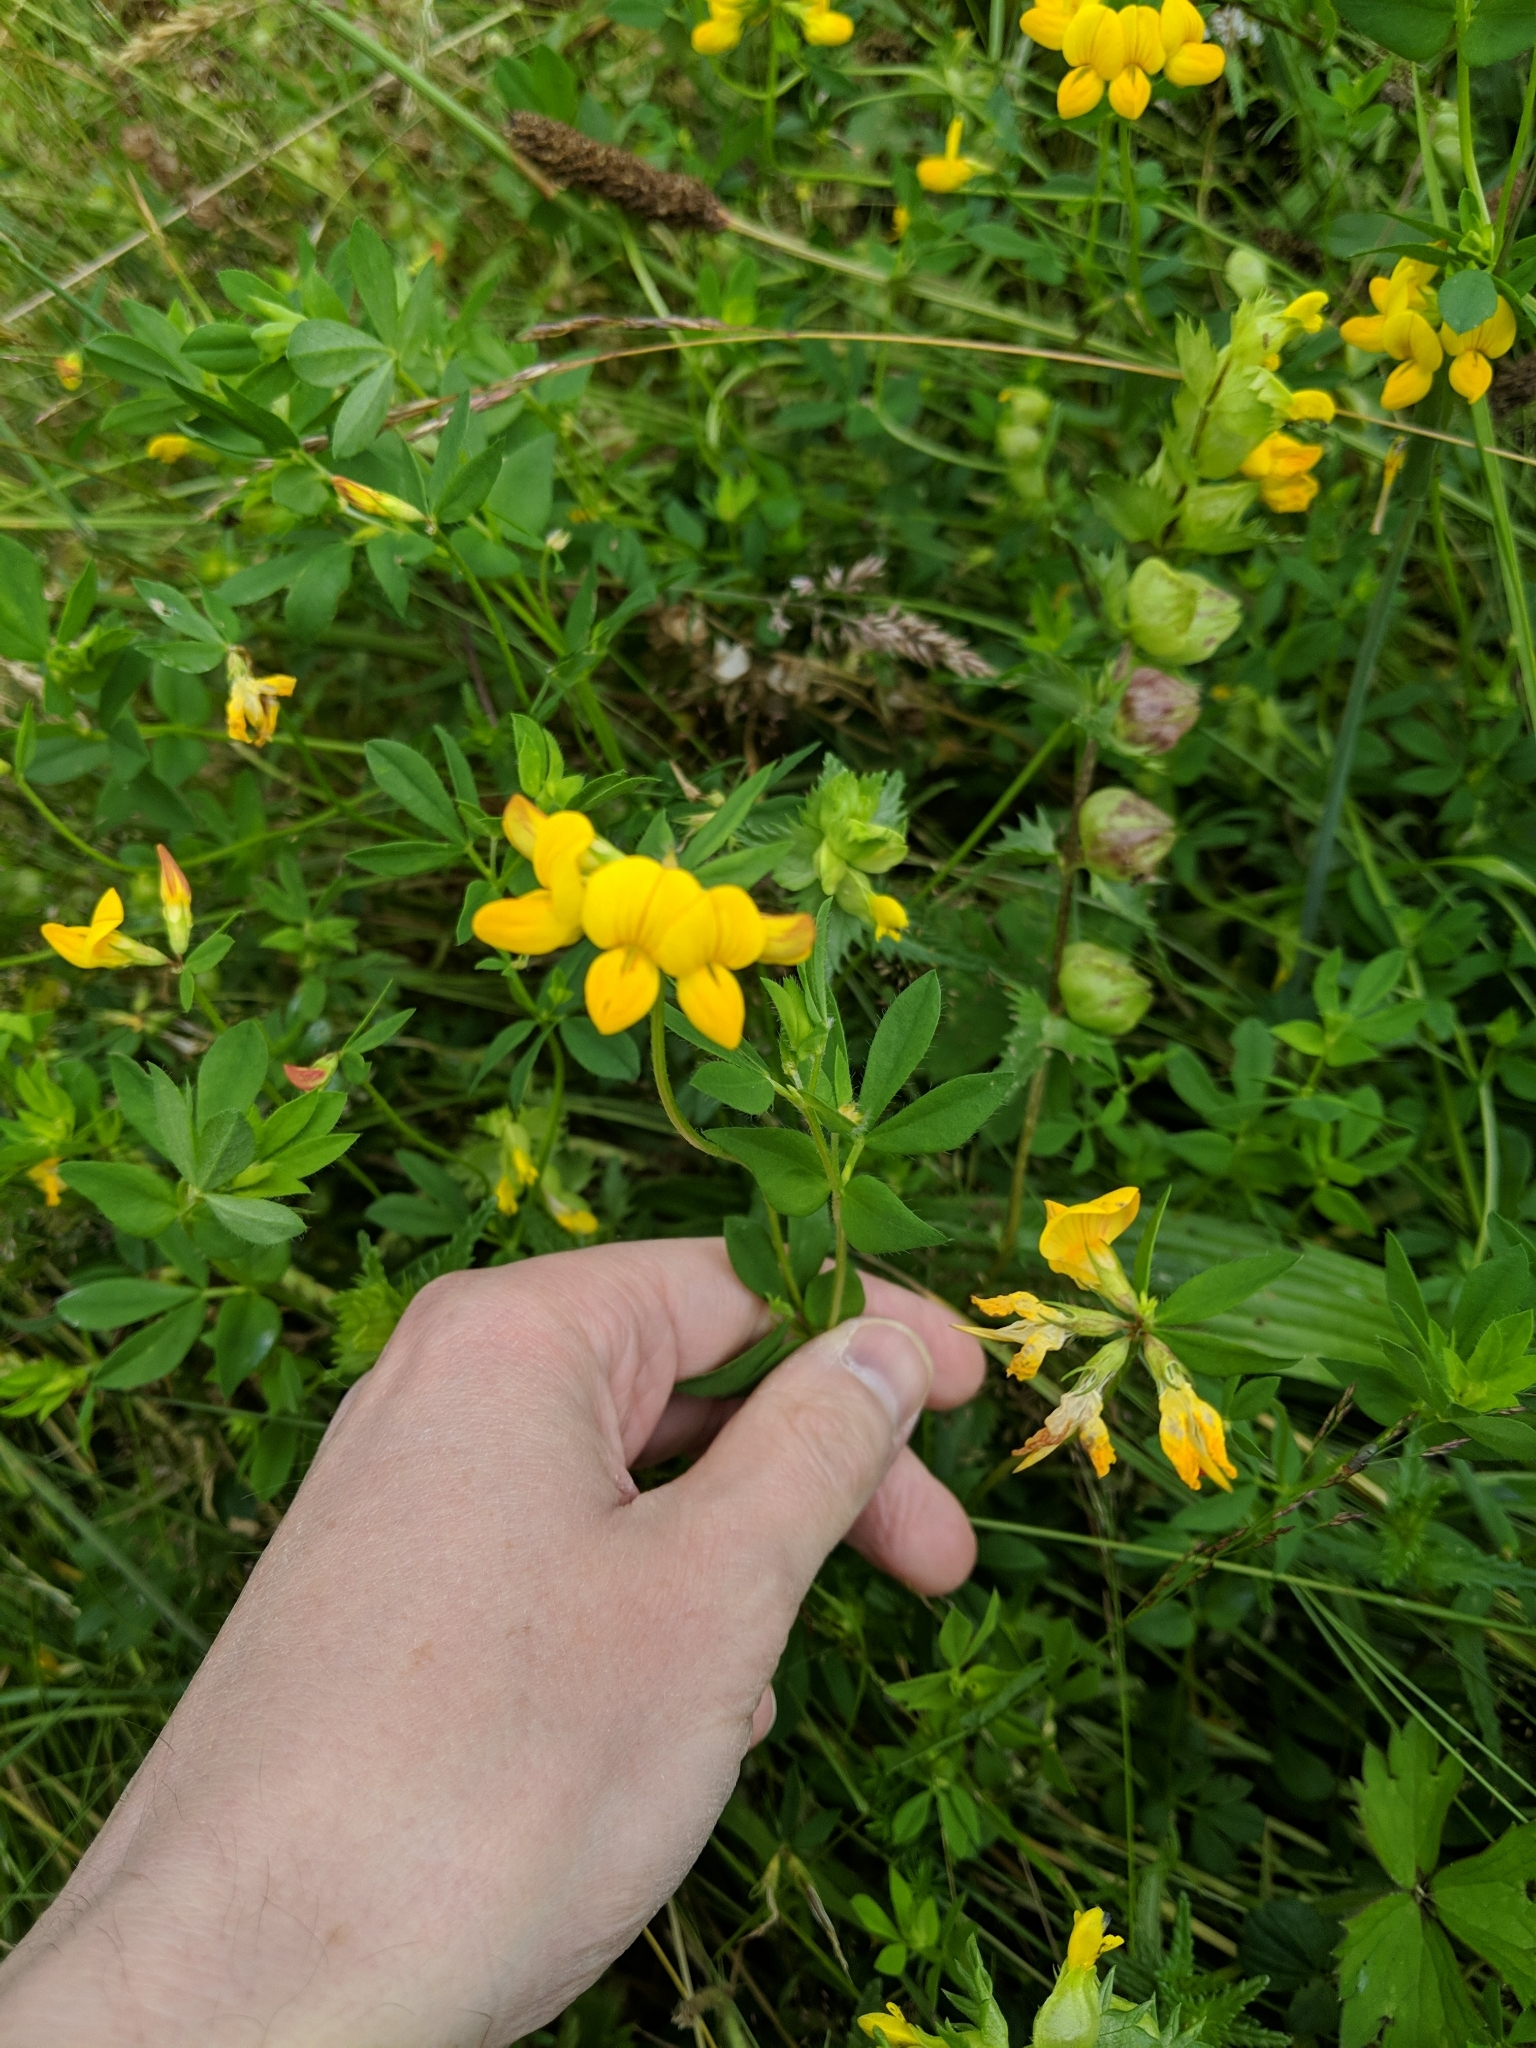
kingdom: Plantae
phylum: Tracheophyta
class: Magnoliopsida
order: Fabales
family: Fabaceae
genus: Lotus
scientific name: Lotus corniculatus
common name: Common bird's-foot-trefoil
